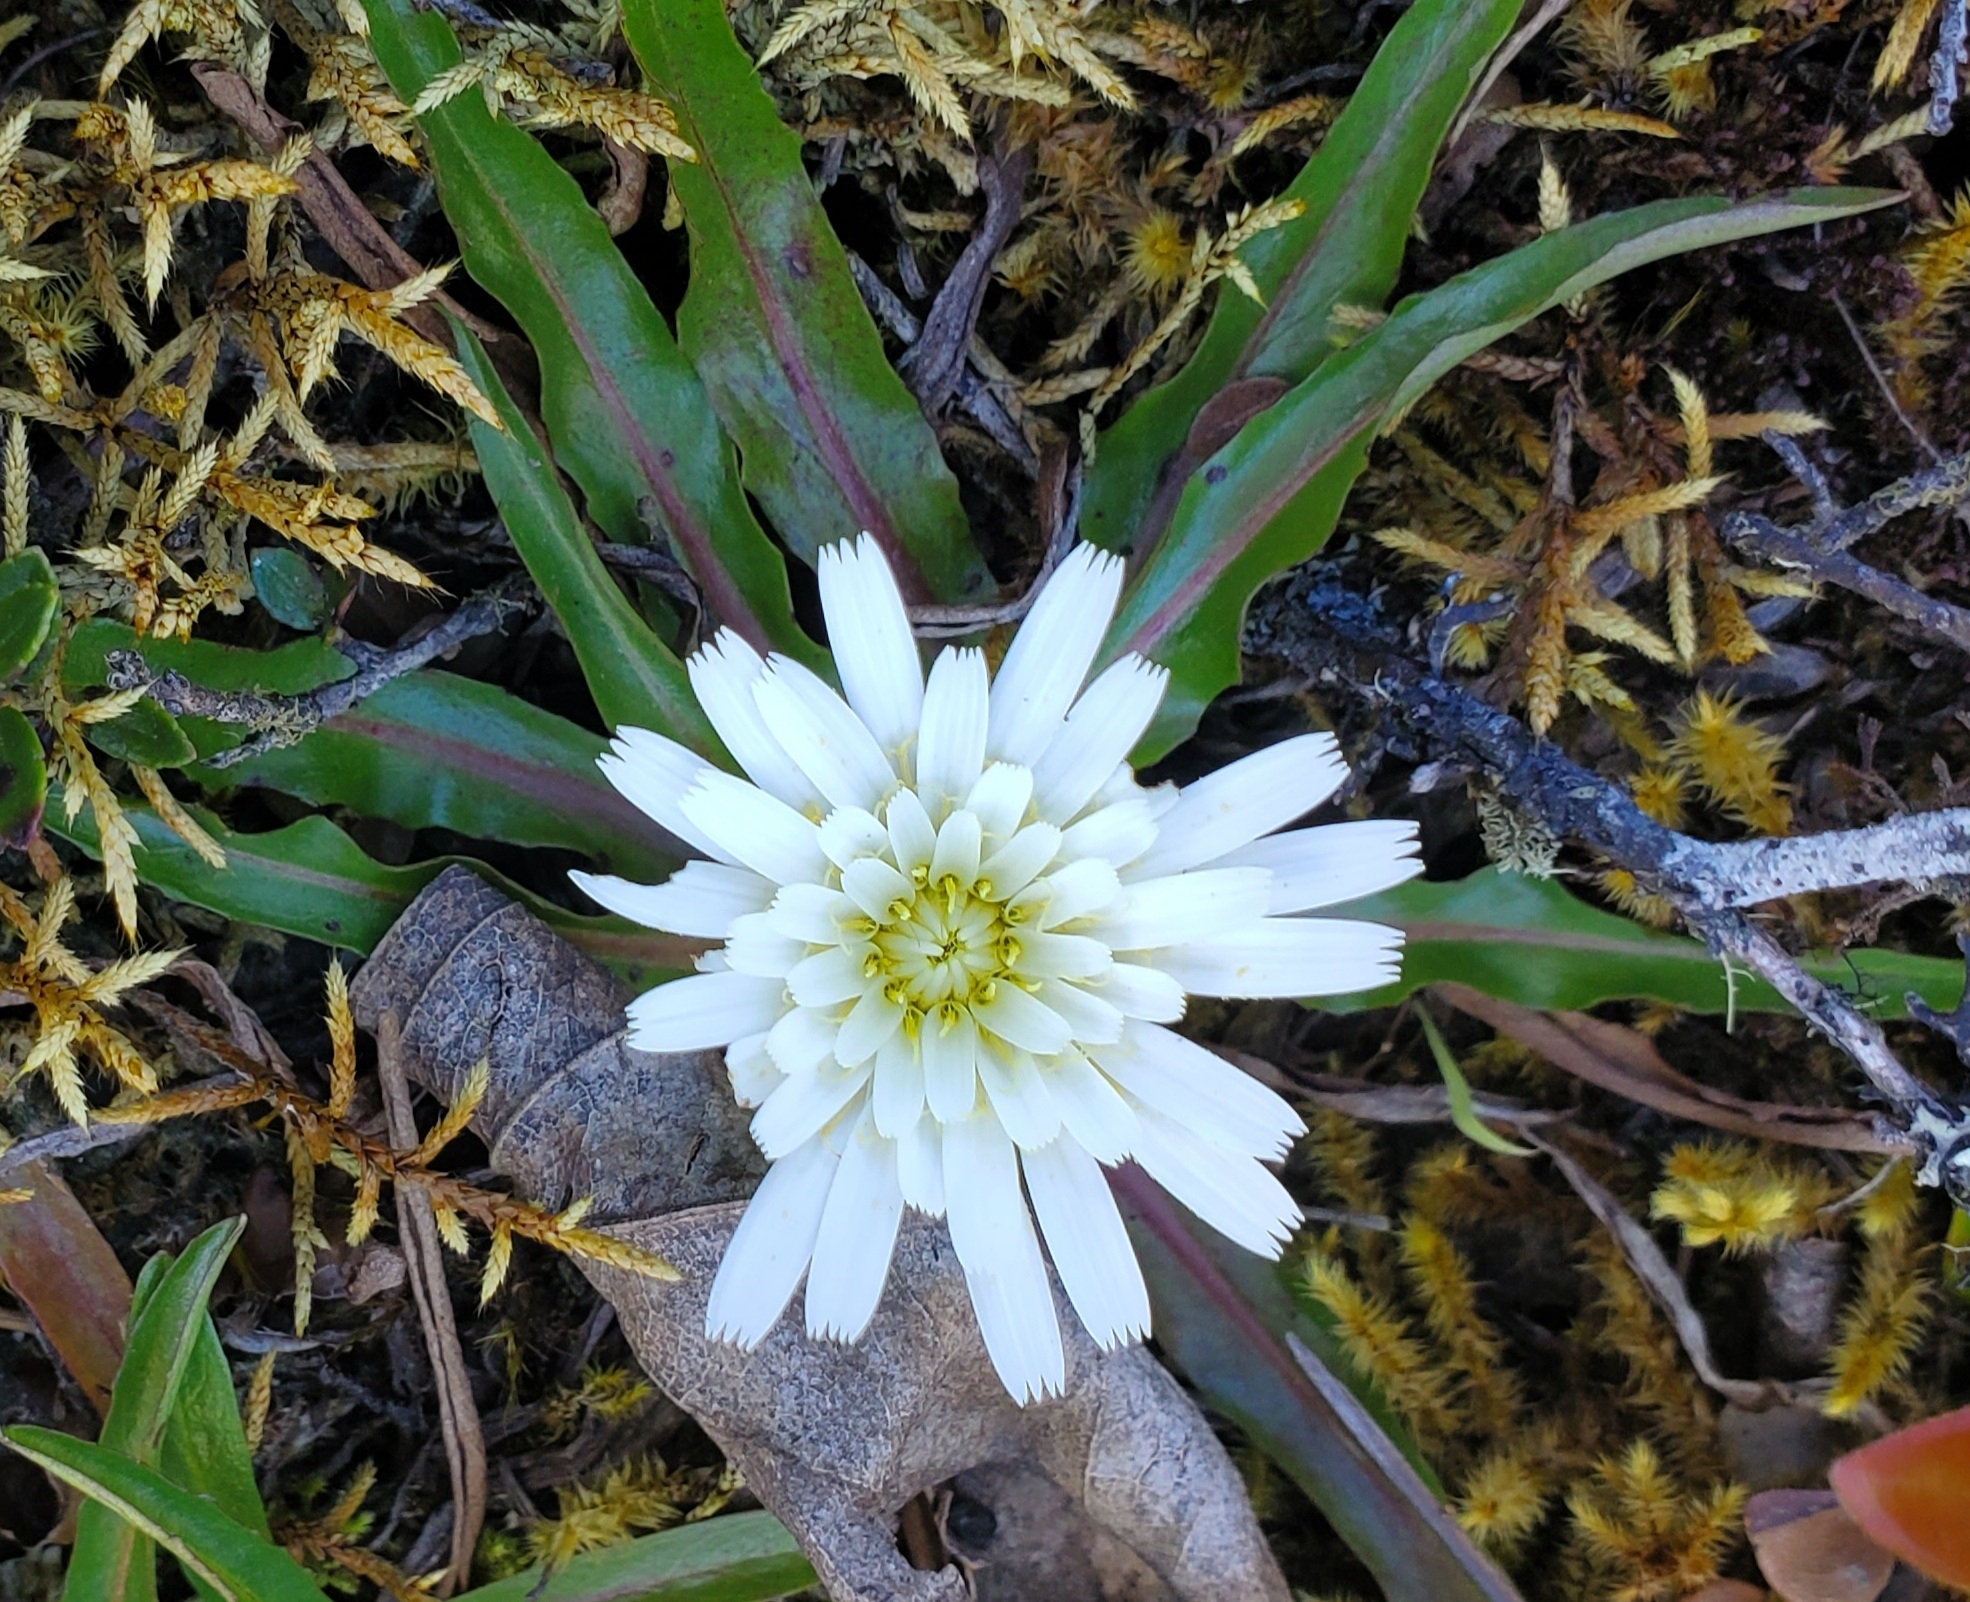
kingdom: Plantae
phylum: Tracheophyta
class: Magnoliopsida
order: Asterales
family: Asteraceae
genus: Hypochaeris
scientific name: Hypochaeris sessiliflora
